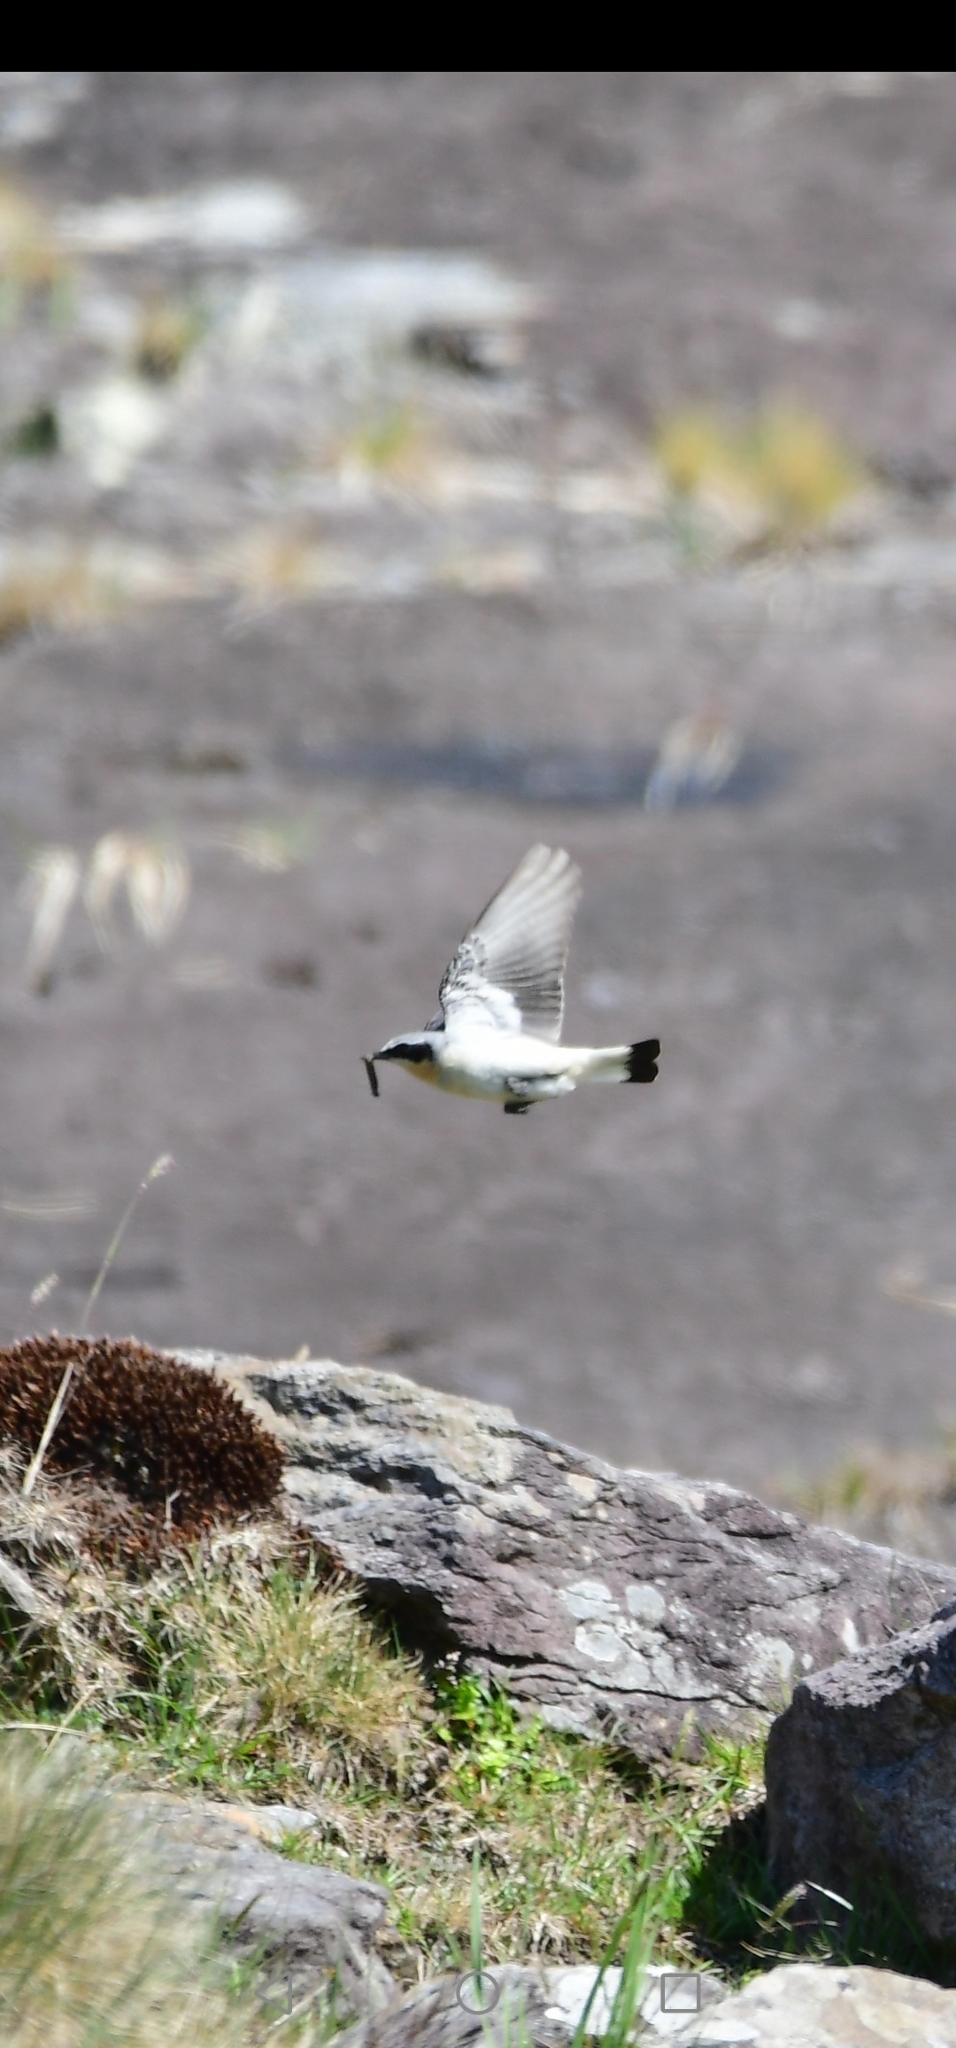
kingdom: Animalia
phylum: Chordata
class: Aves
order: Passeriformes
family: Muscicapidae
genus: Oenanthe
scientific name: Oenanthe oenanthe
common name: Northern wheatear
